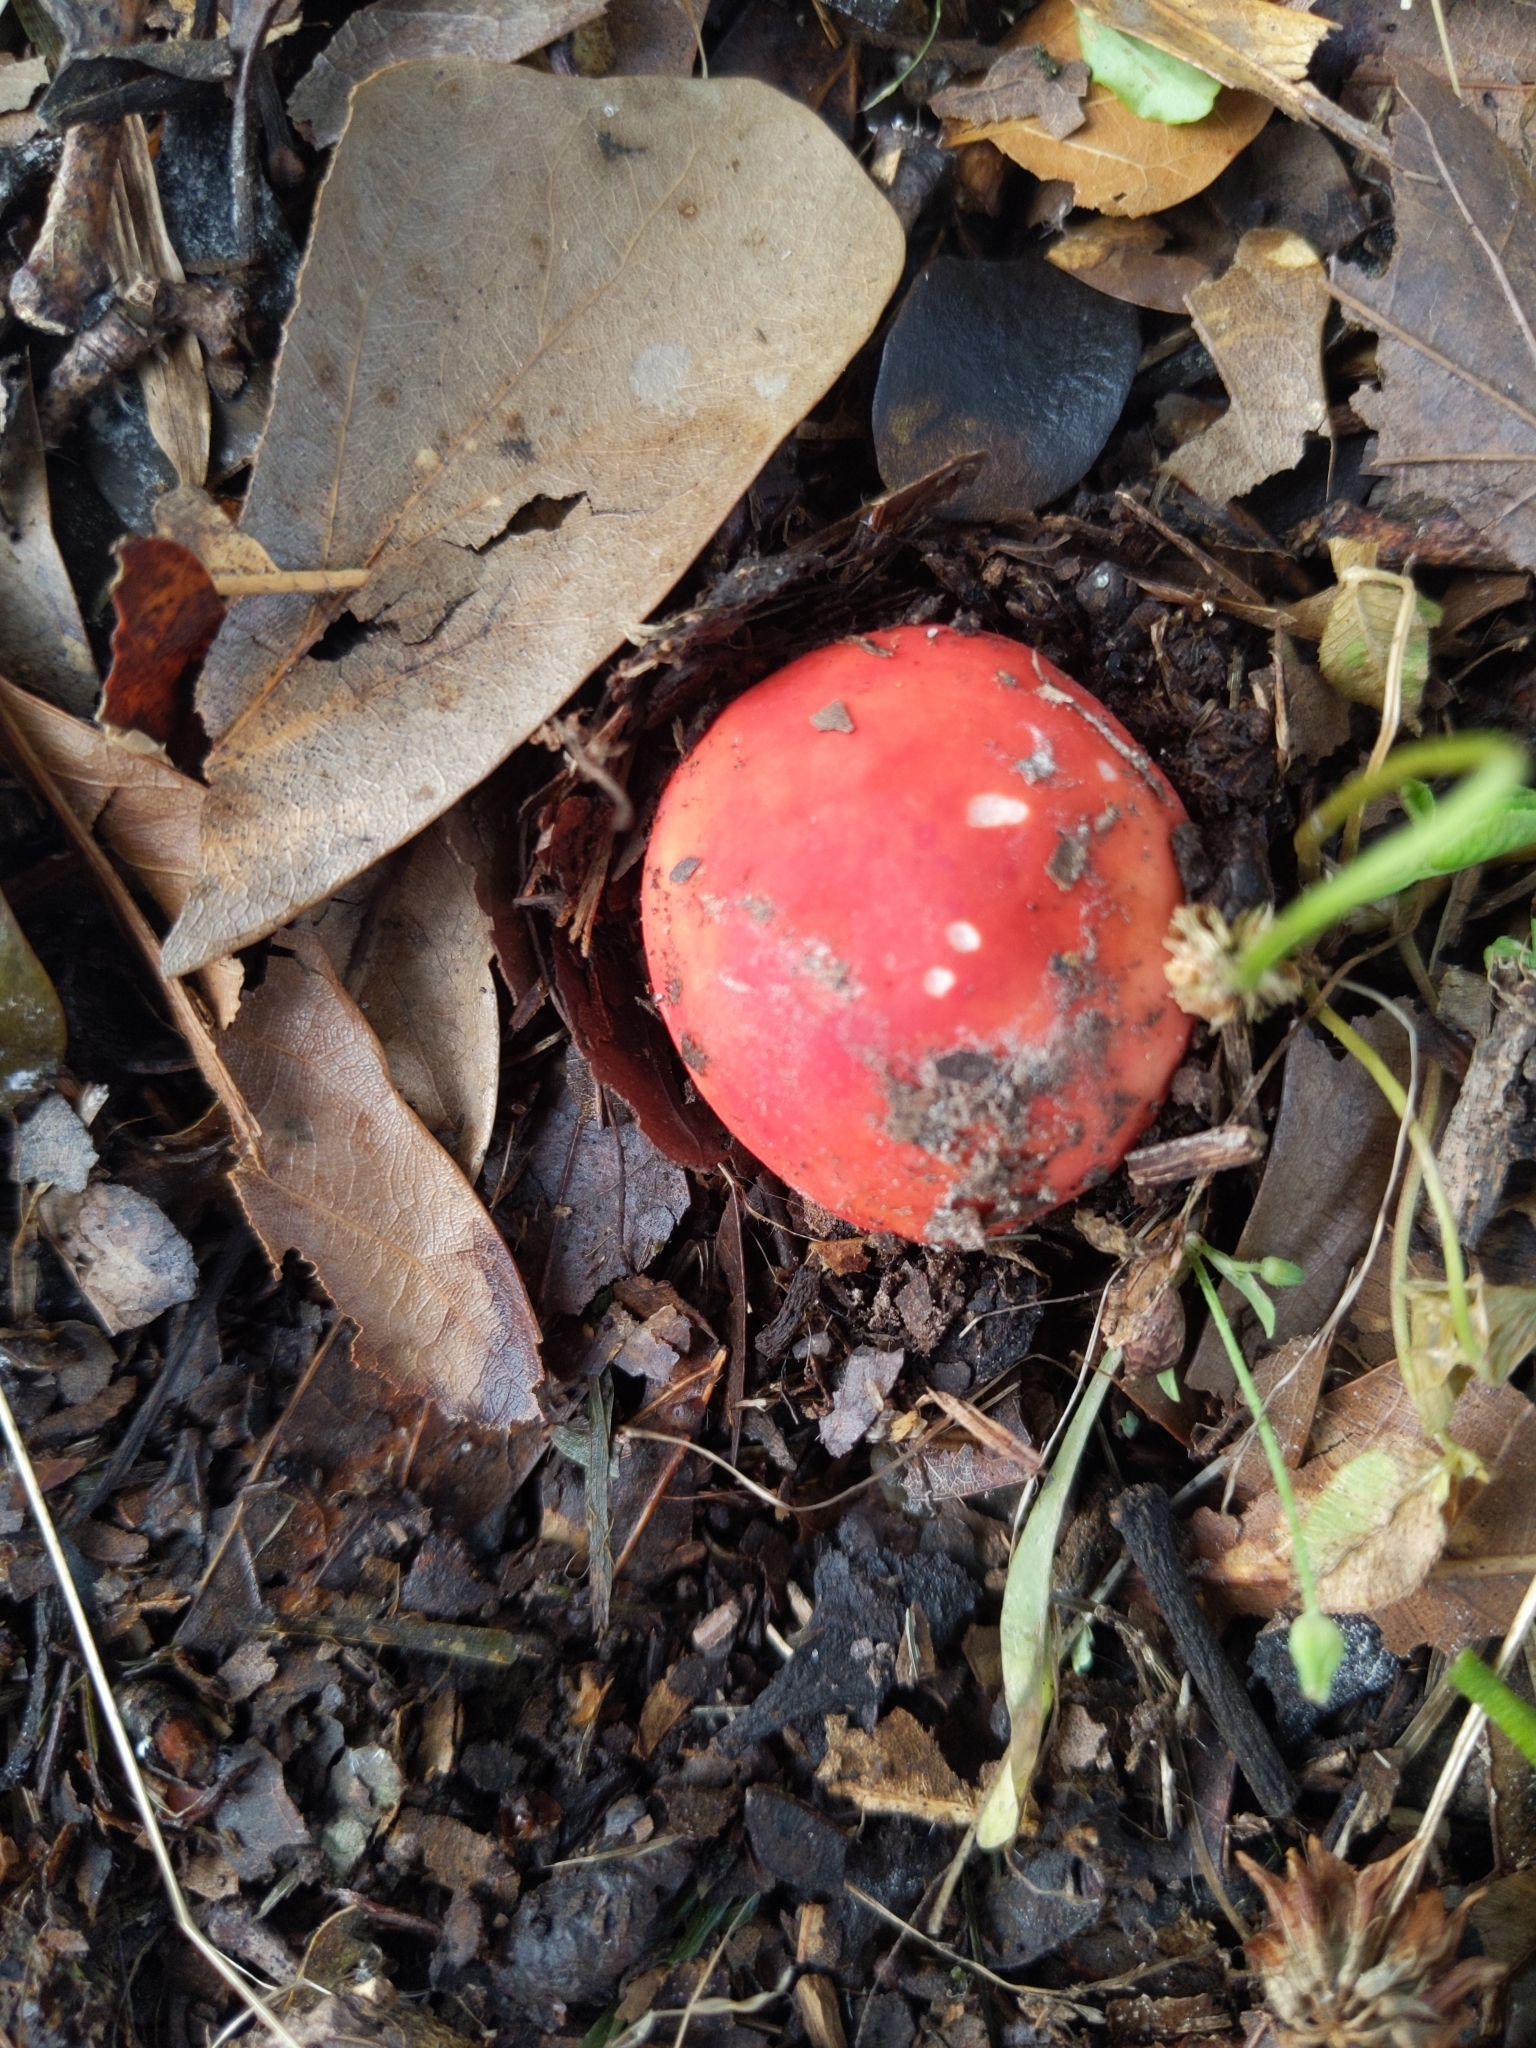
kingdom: Fungi
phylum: Basidiomycota
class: Agaricomycetes
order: Russulales
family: Russulaceae
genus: Russula
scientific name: Russula flavisiccans
